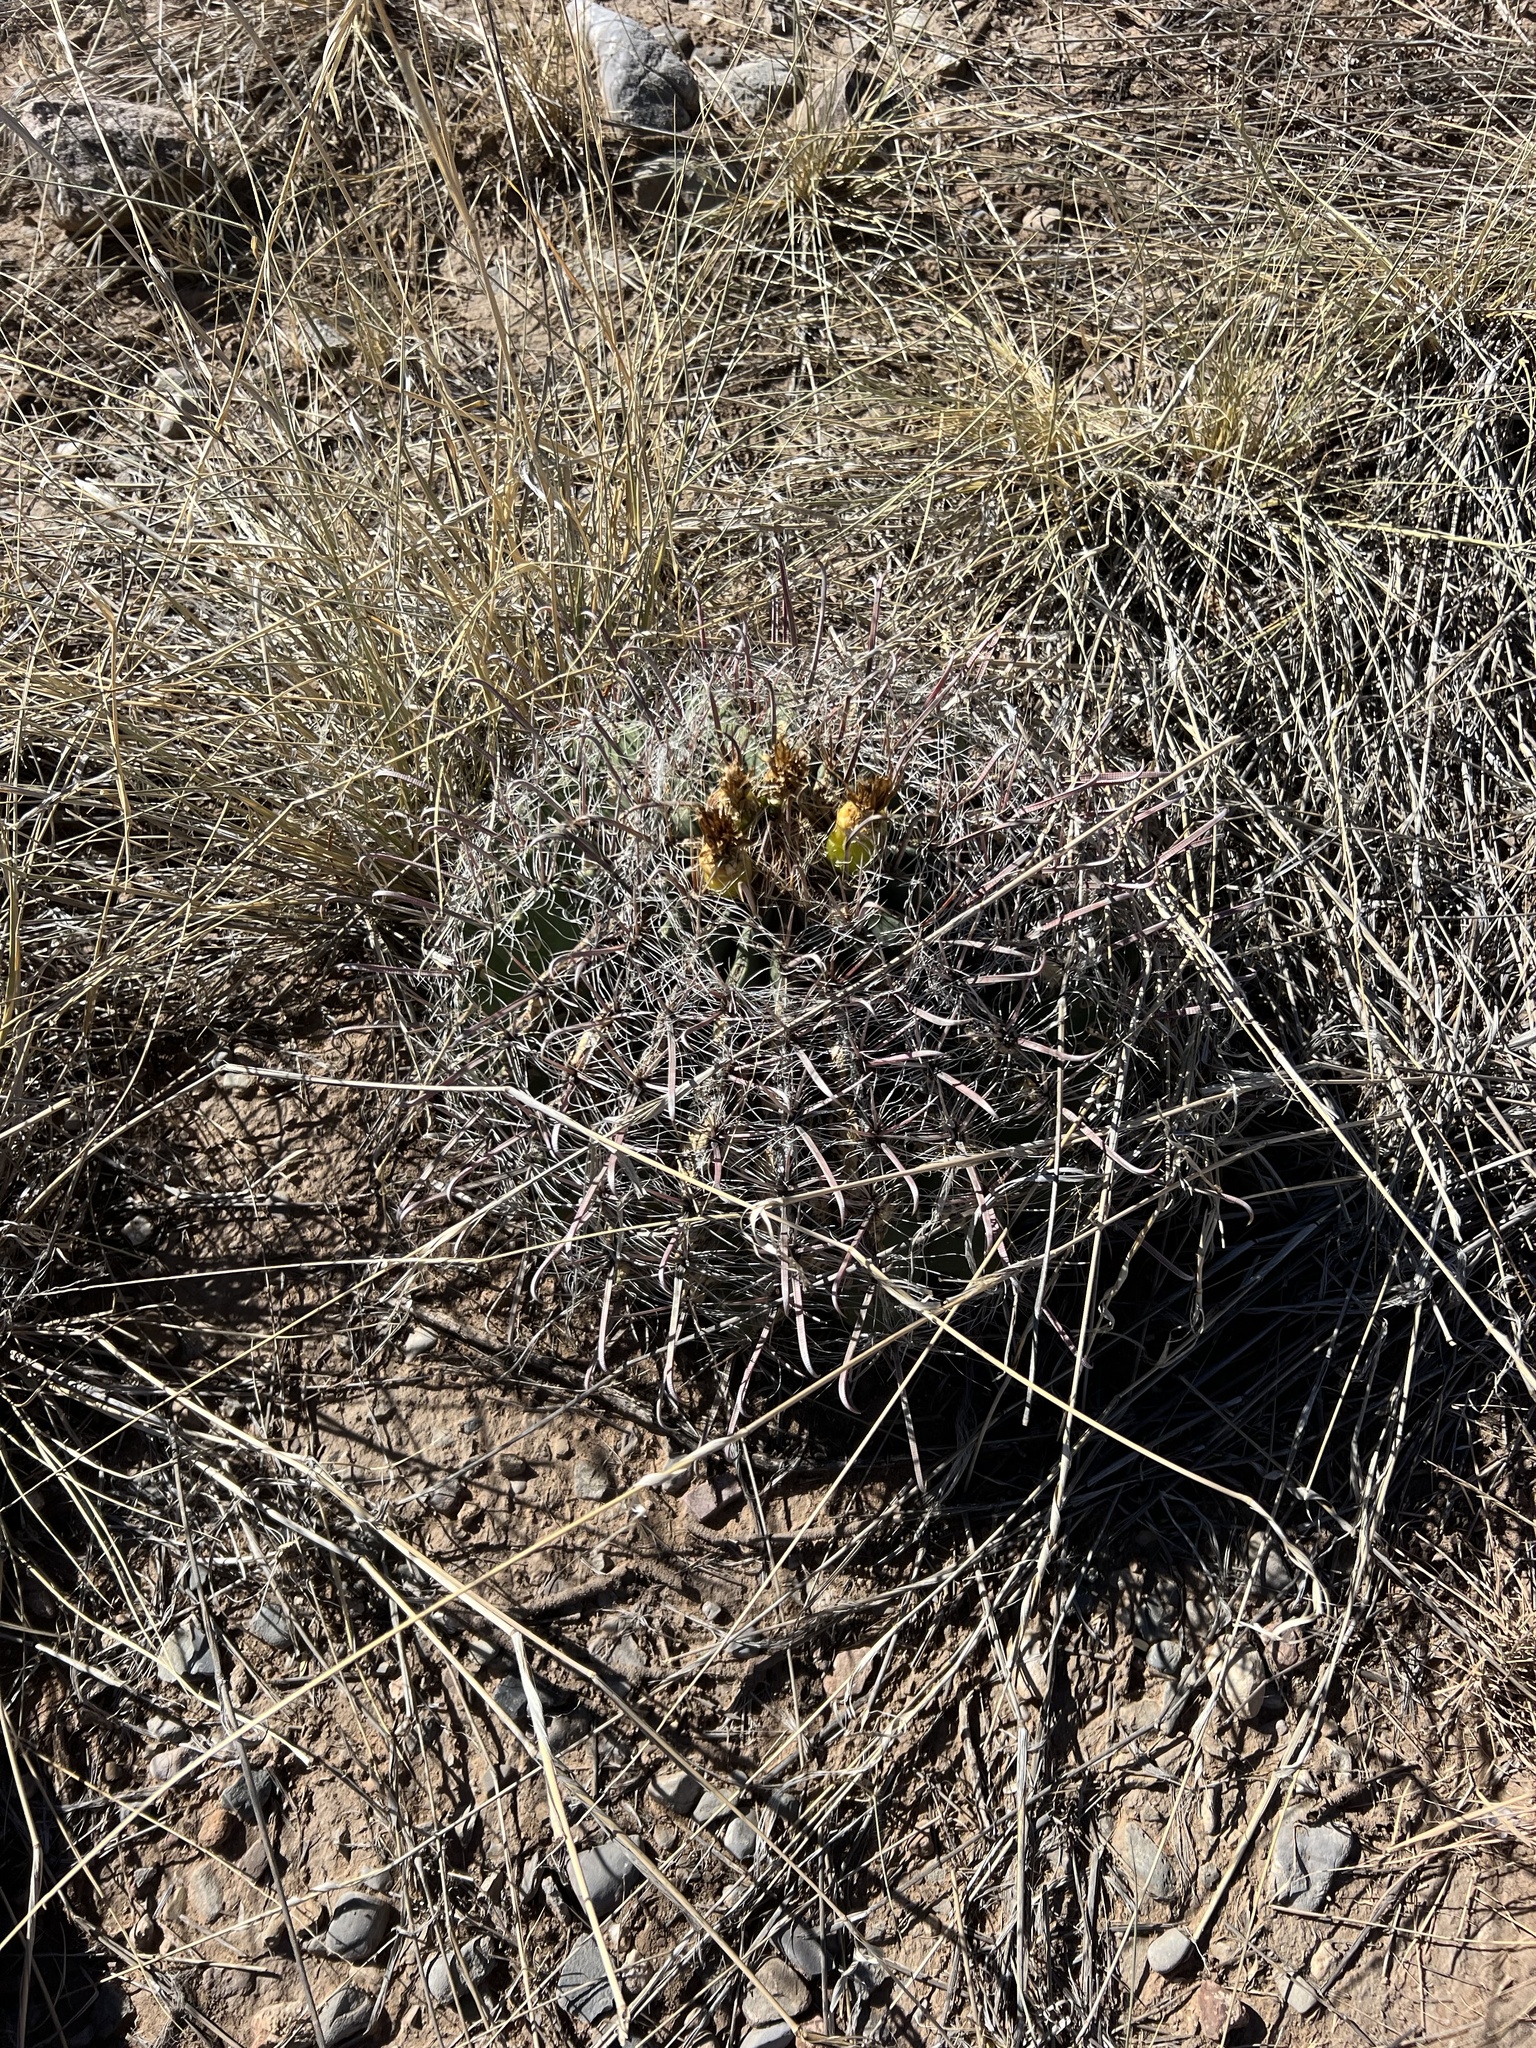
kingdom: Plantae
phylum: Tracheophyta
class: Magnoliopsida
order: Caryophyllales
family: Cactaceae
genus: Ferocactus
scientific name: Ferocactus wislizeni
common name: Candy barrel cactus
